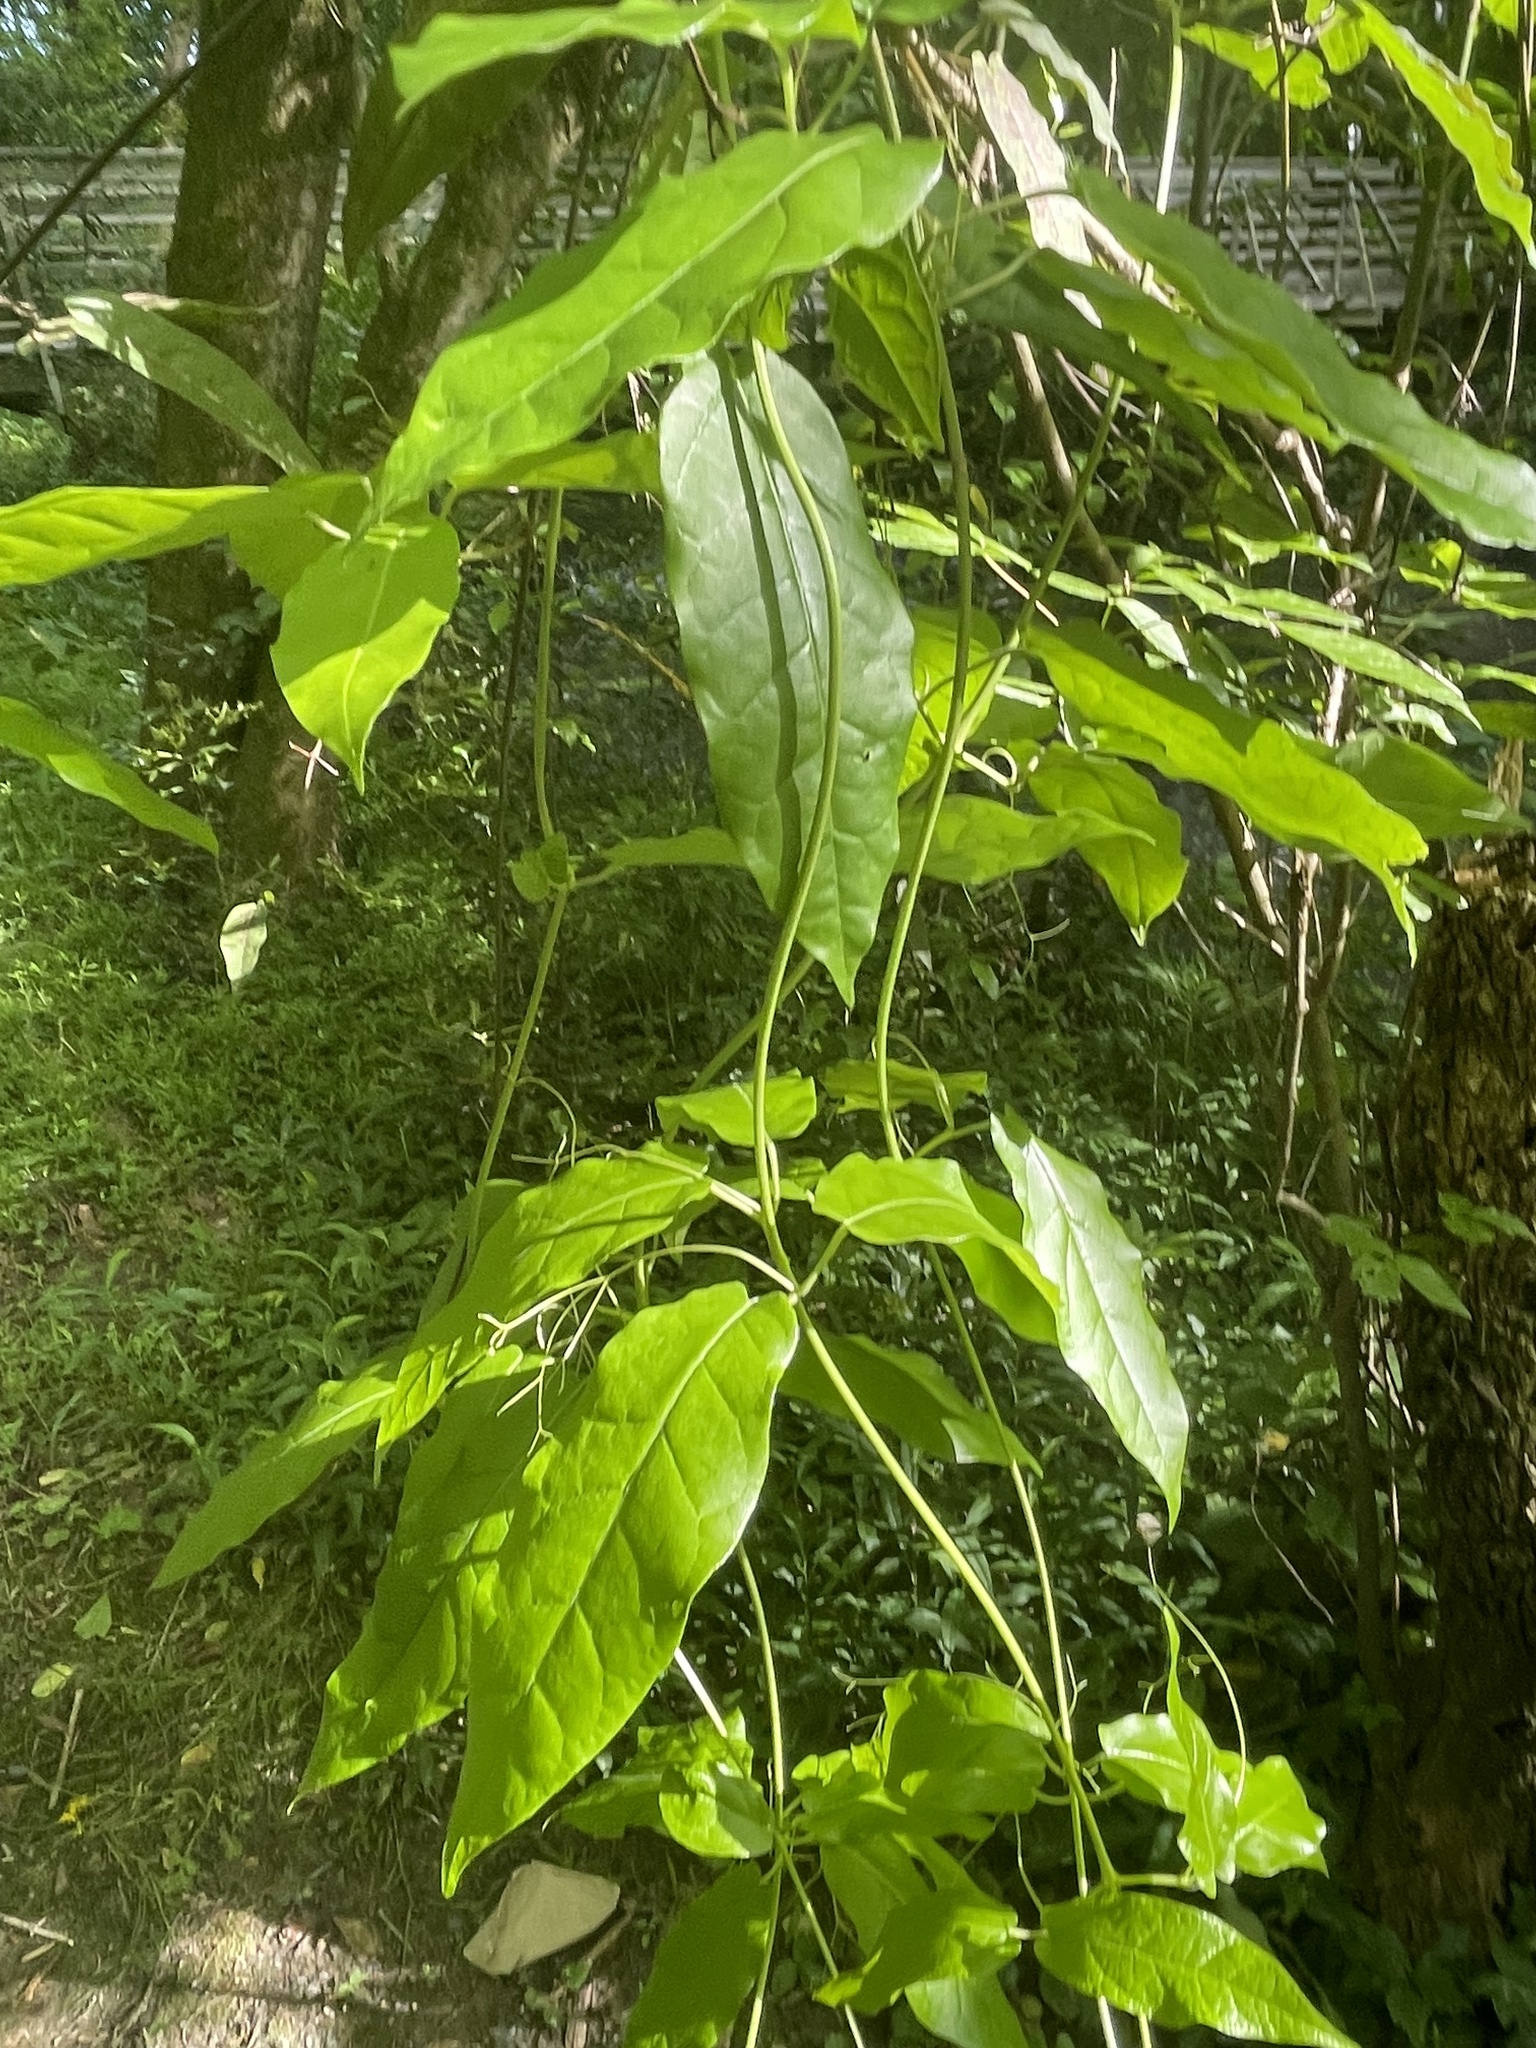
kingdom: Plantae
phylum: Tracheophyta
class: Magnoliopsida
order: Lamiales
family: Bignoniaceae
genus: Bignonia
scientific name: Bignonia capreolata
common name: Crossvine
